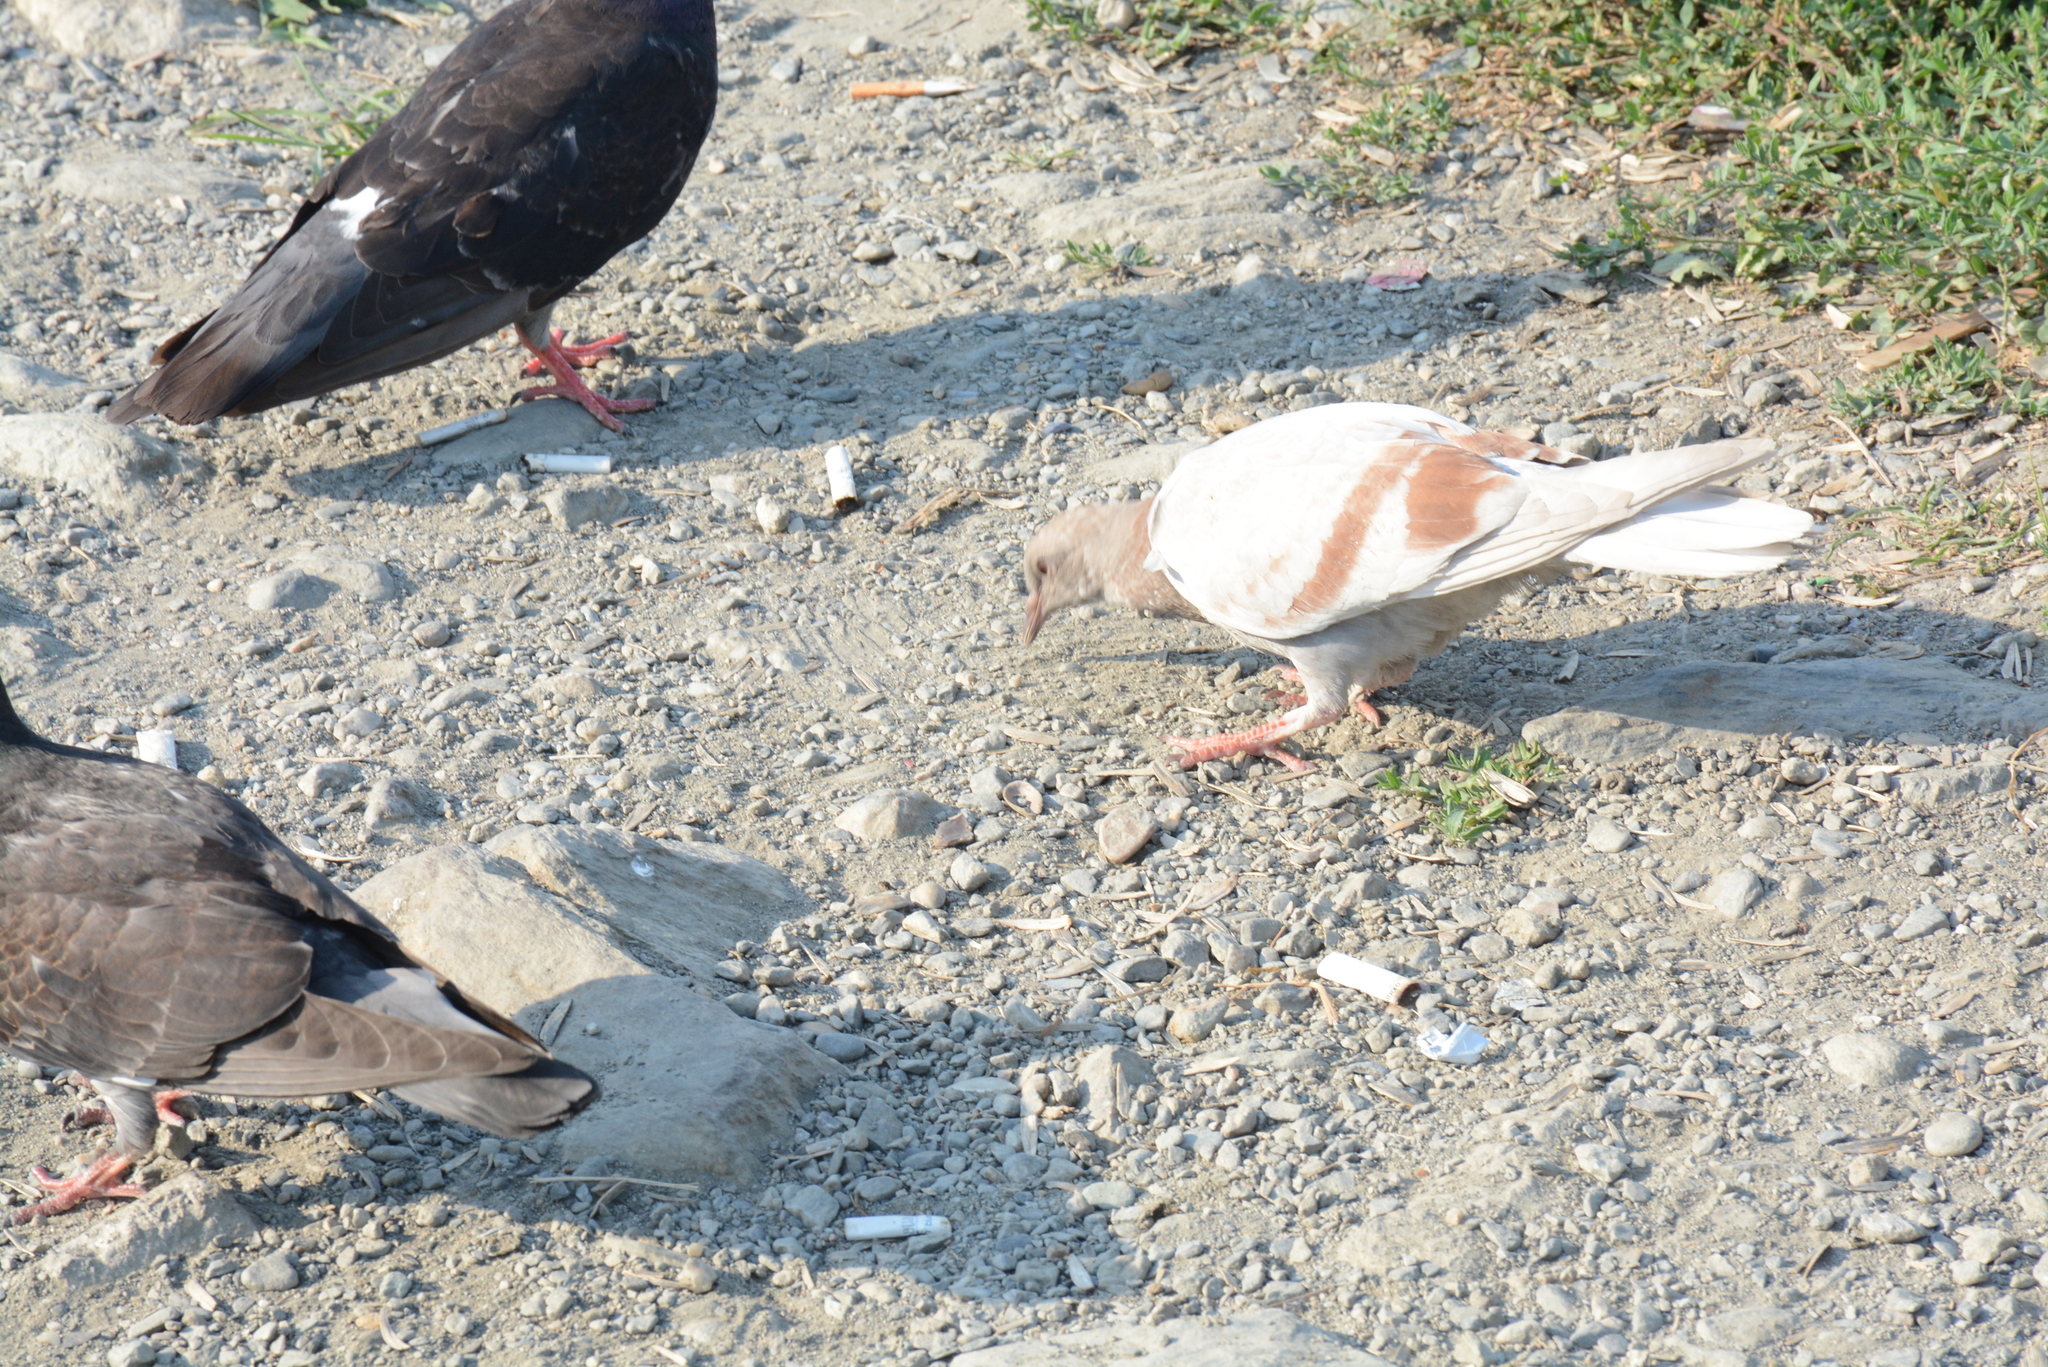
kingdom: Animalia
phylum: Chordata
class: Aves
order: Columbiformes
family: Columbidae
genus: Columba
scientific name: Columba livia
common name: Rock pigeon
